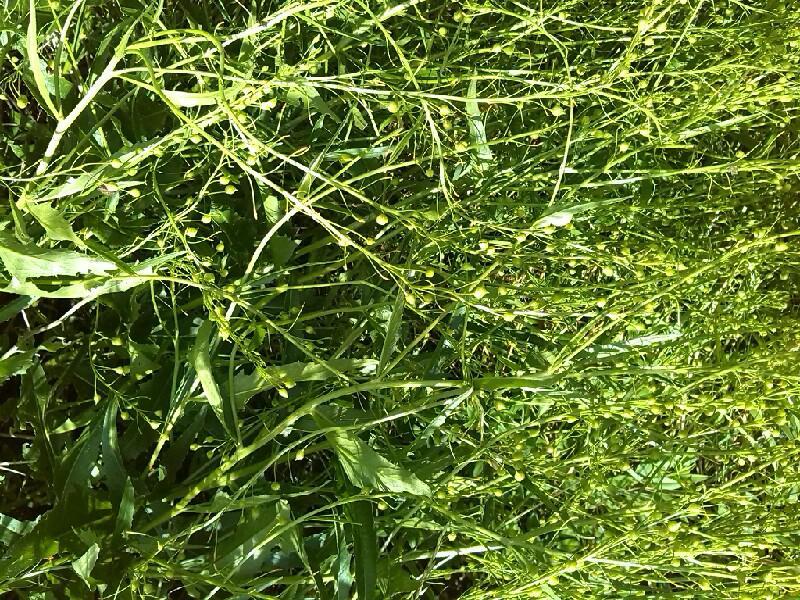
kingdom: Plantae
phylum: Tracheophyta
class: Magnoliopsida
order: Brassicales
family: Brassicaceae
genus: Bunias
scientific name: Bunias orientalis
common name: Warty-cabbage
